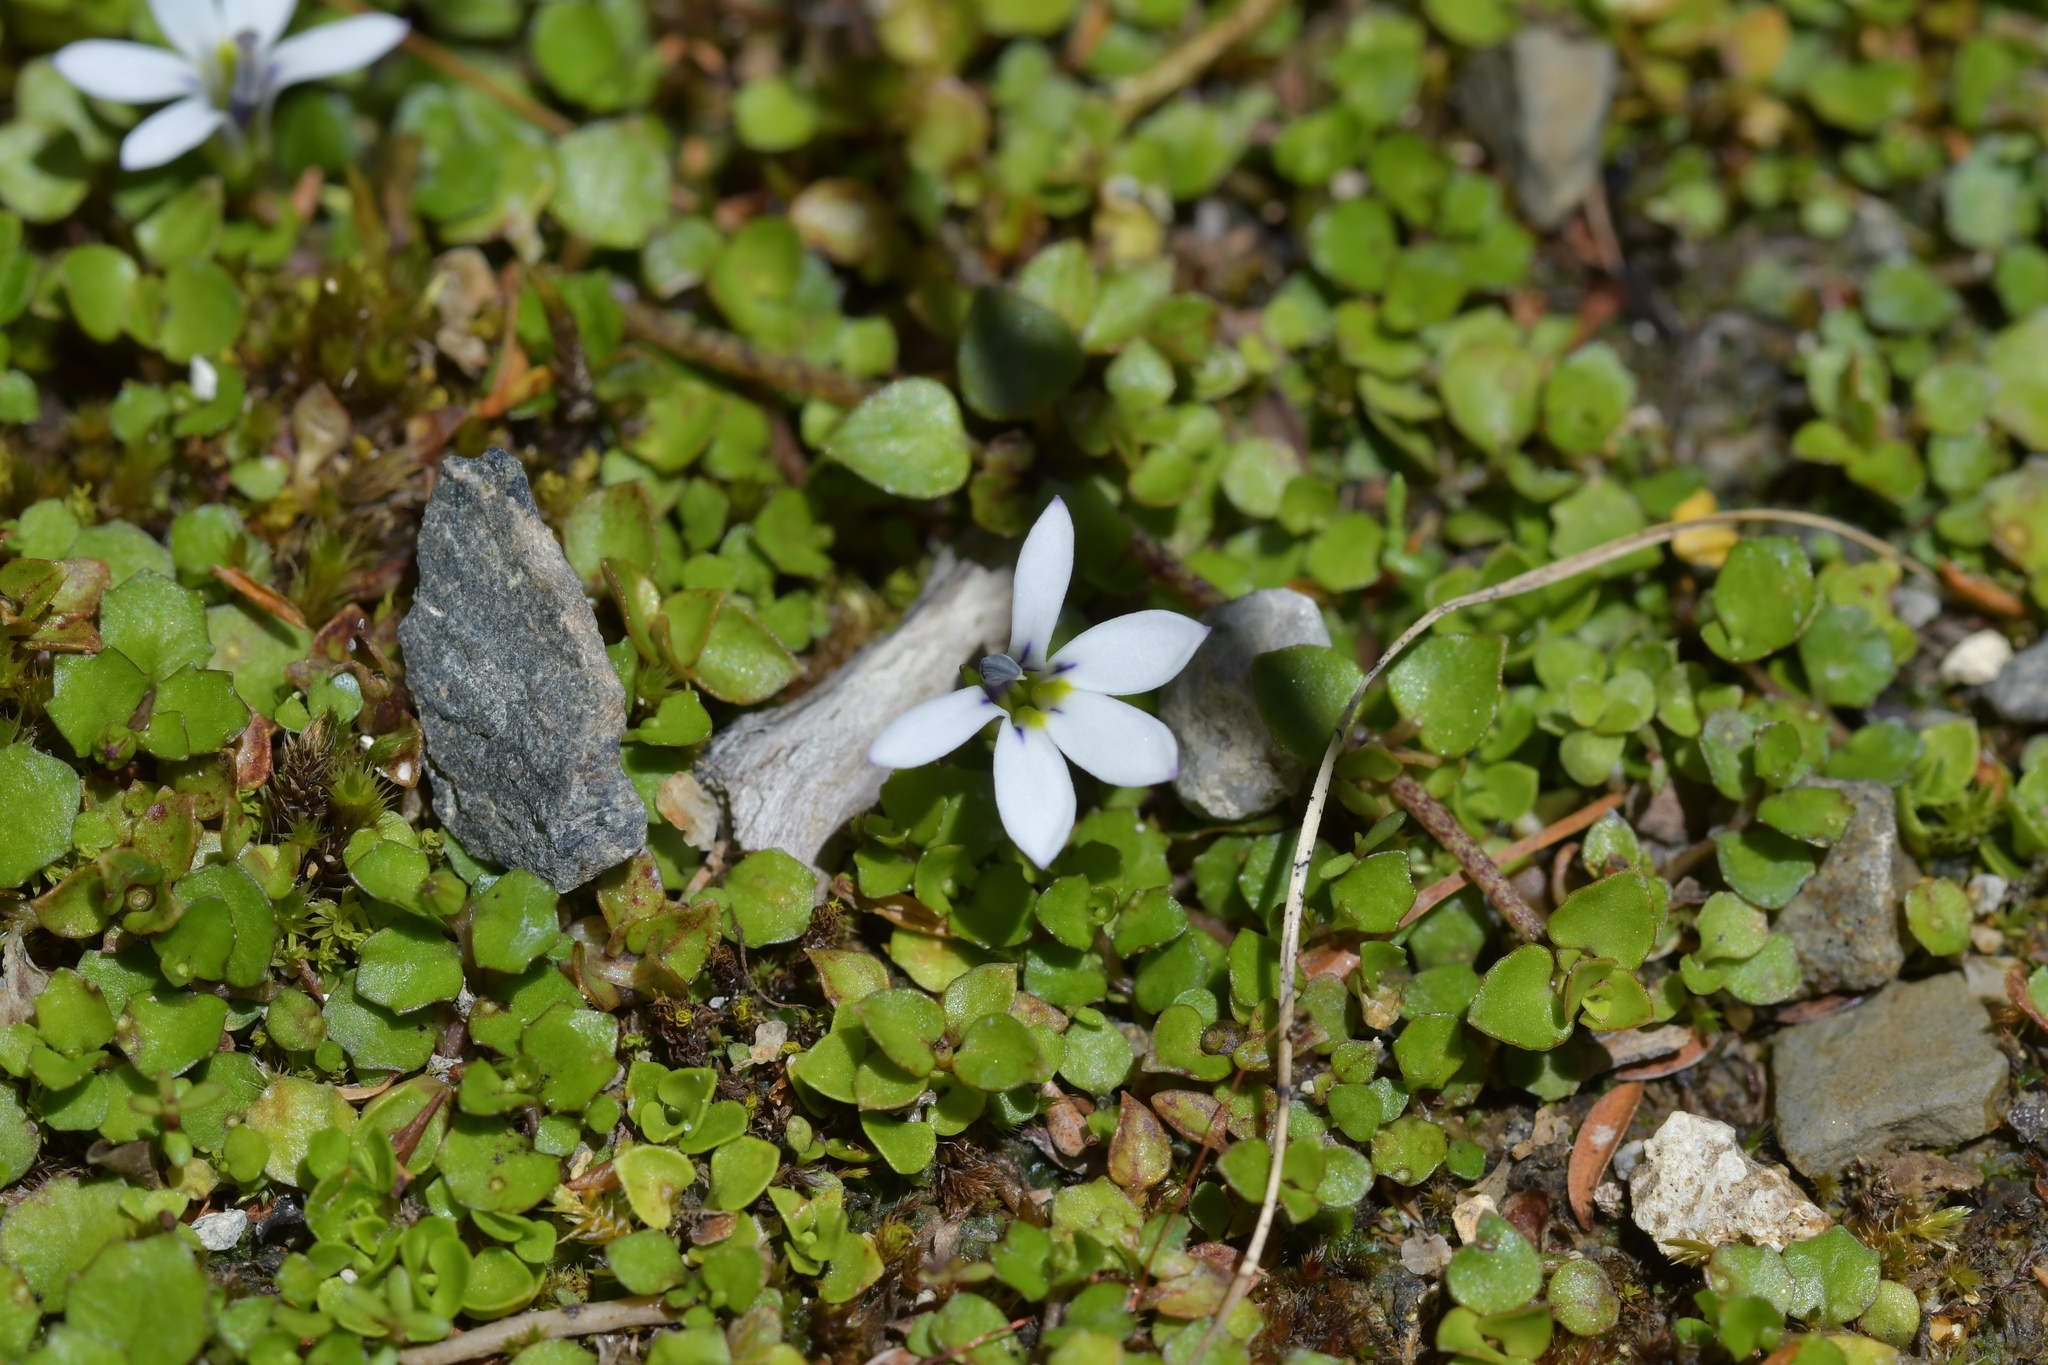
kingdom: Plantae
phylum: Tracheophyta
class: Magnoliopsida
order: Asterales
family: Campanulaceae
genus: Lobelia
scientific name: Lobelia angulata
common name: Lawn lobelia
